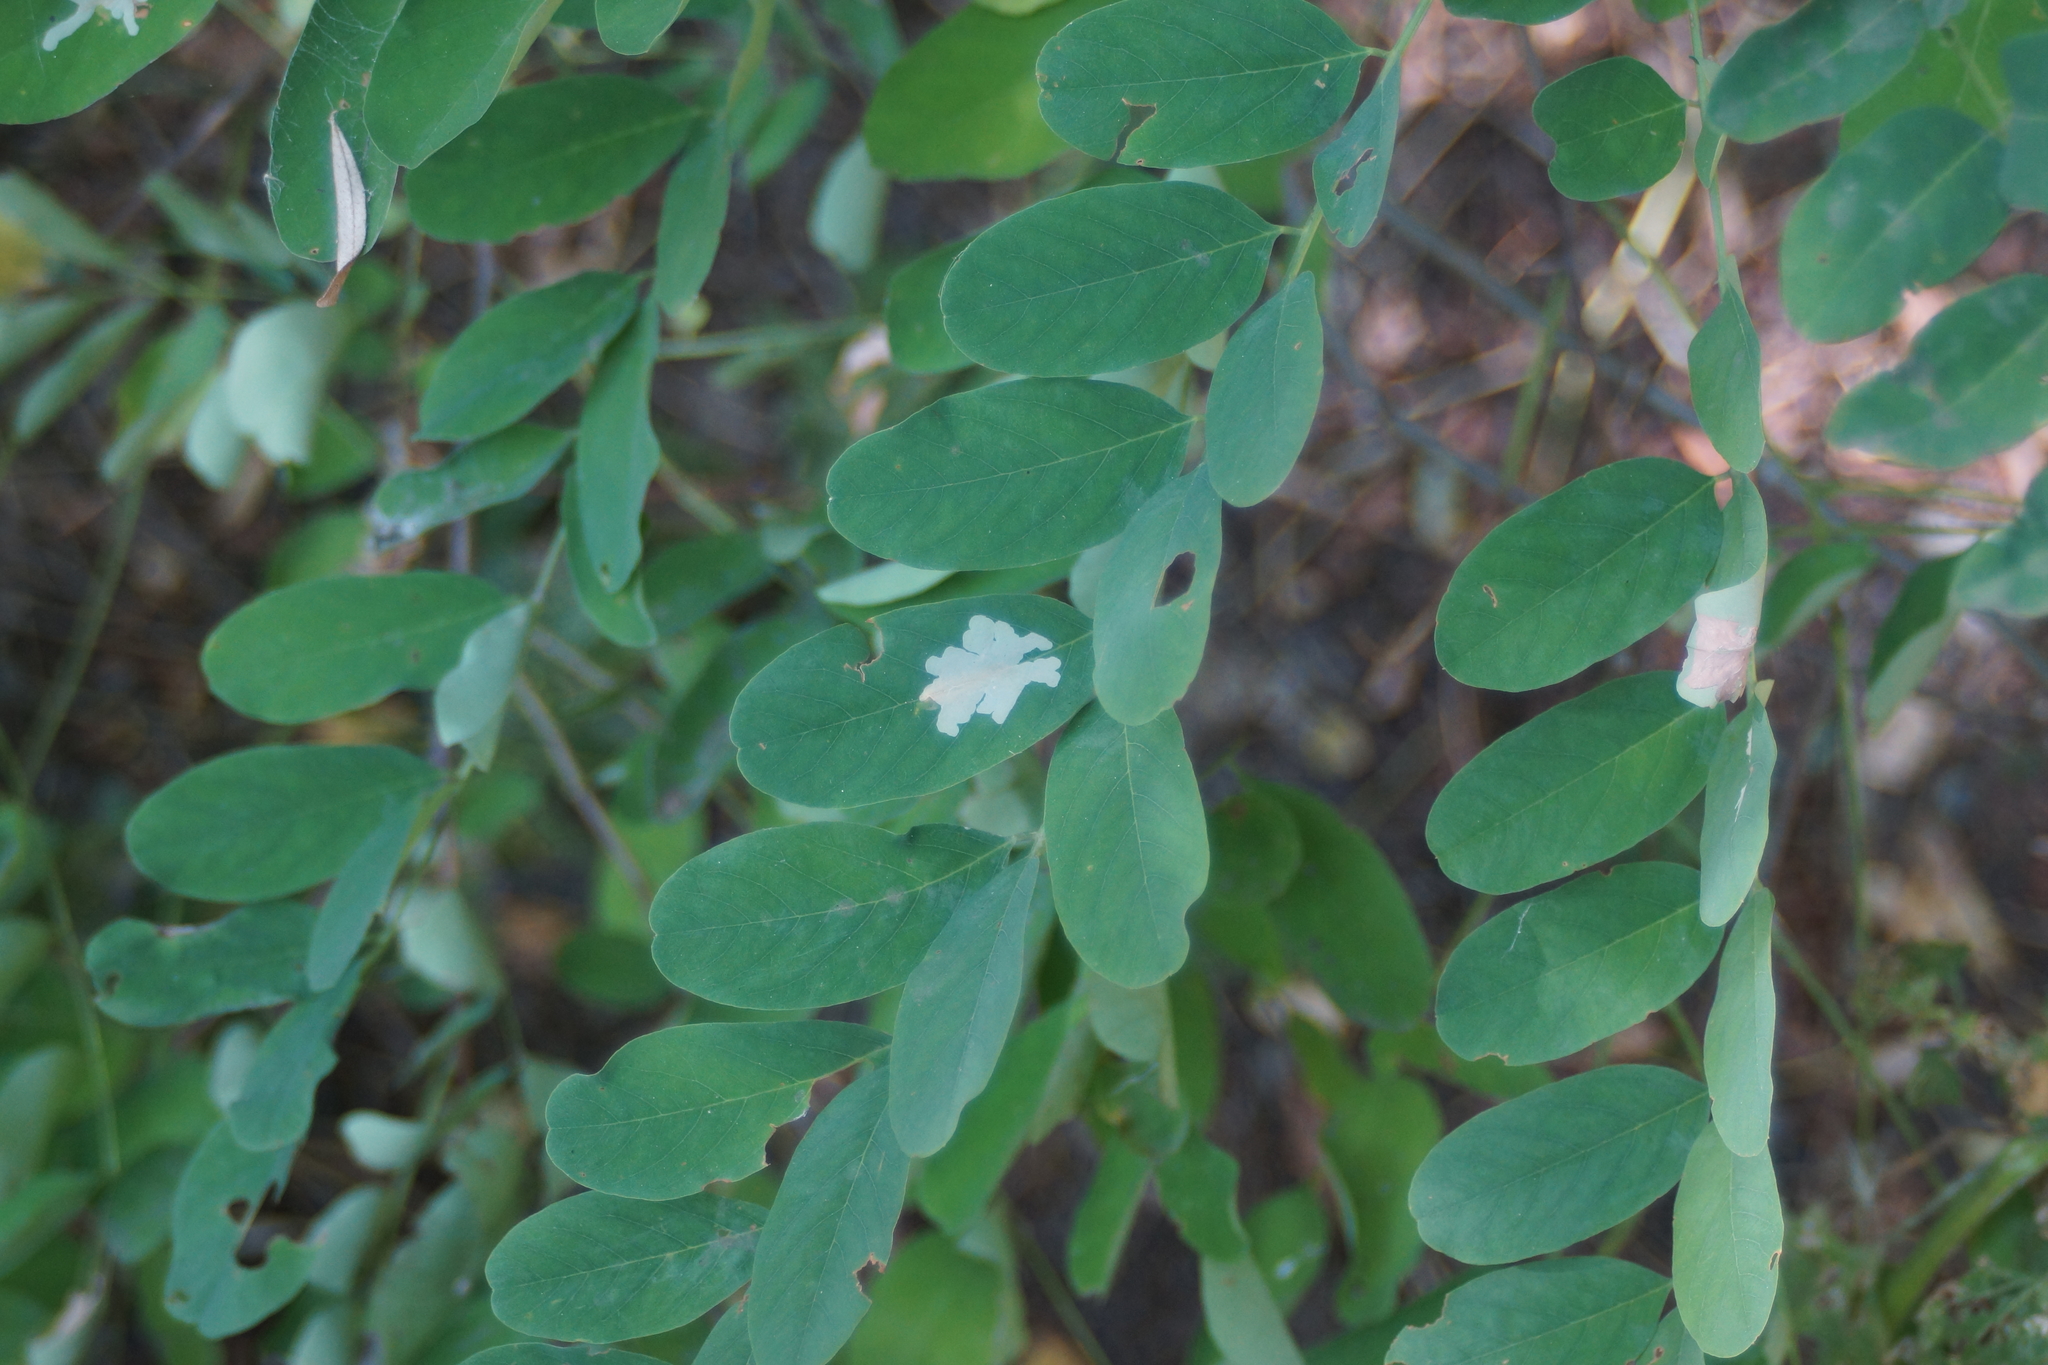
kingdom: Animalia
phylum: Arthropoda
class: Insecta
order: Lepidoptera
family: Gracillariidae
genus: Parectopa
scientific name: Parectopa robiniella
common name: Locust digitate leafminer
